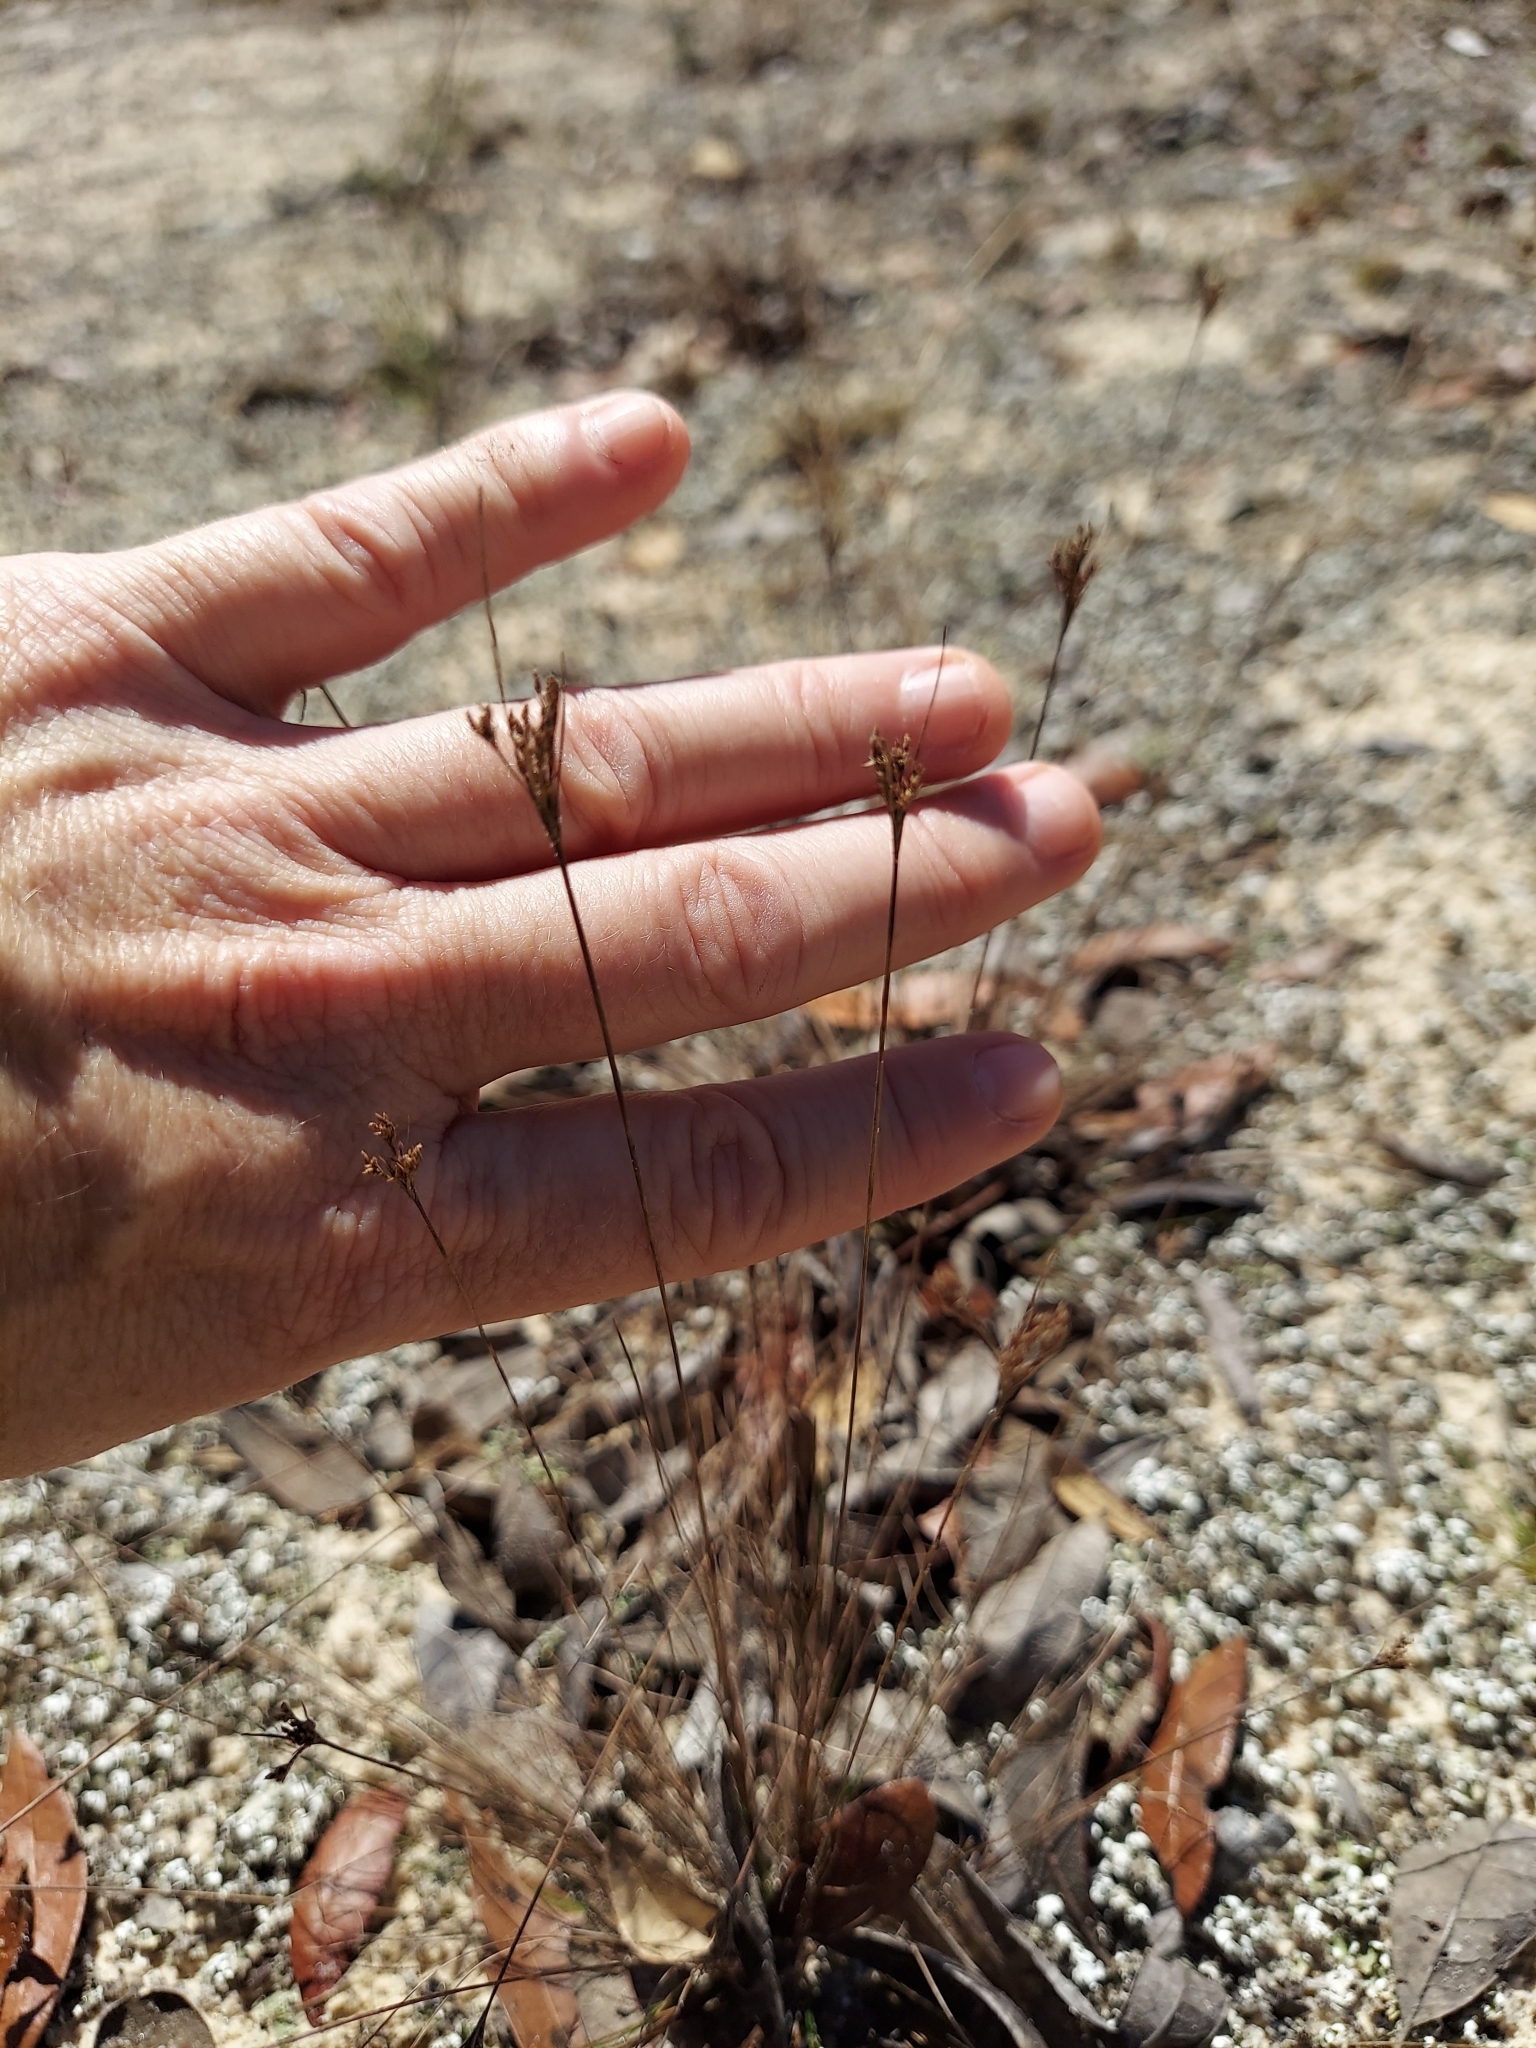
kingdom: Plantae
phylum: Tracheophyta
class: Liliopsida
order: Poales
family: Cyperaceae
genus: Bulbostylis
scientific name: Bulbostylis ciliatifolia
